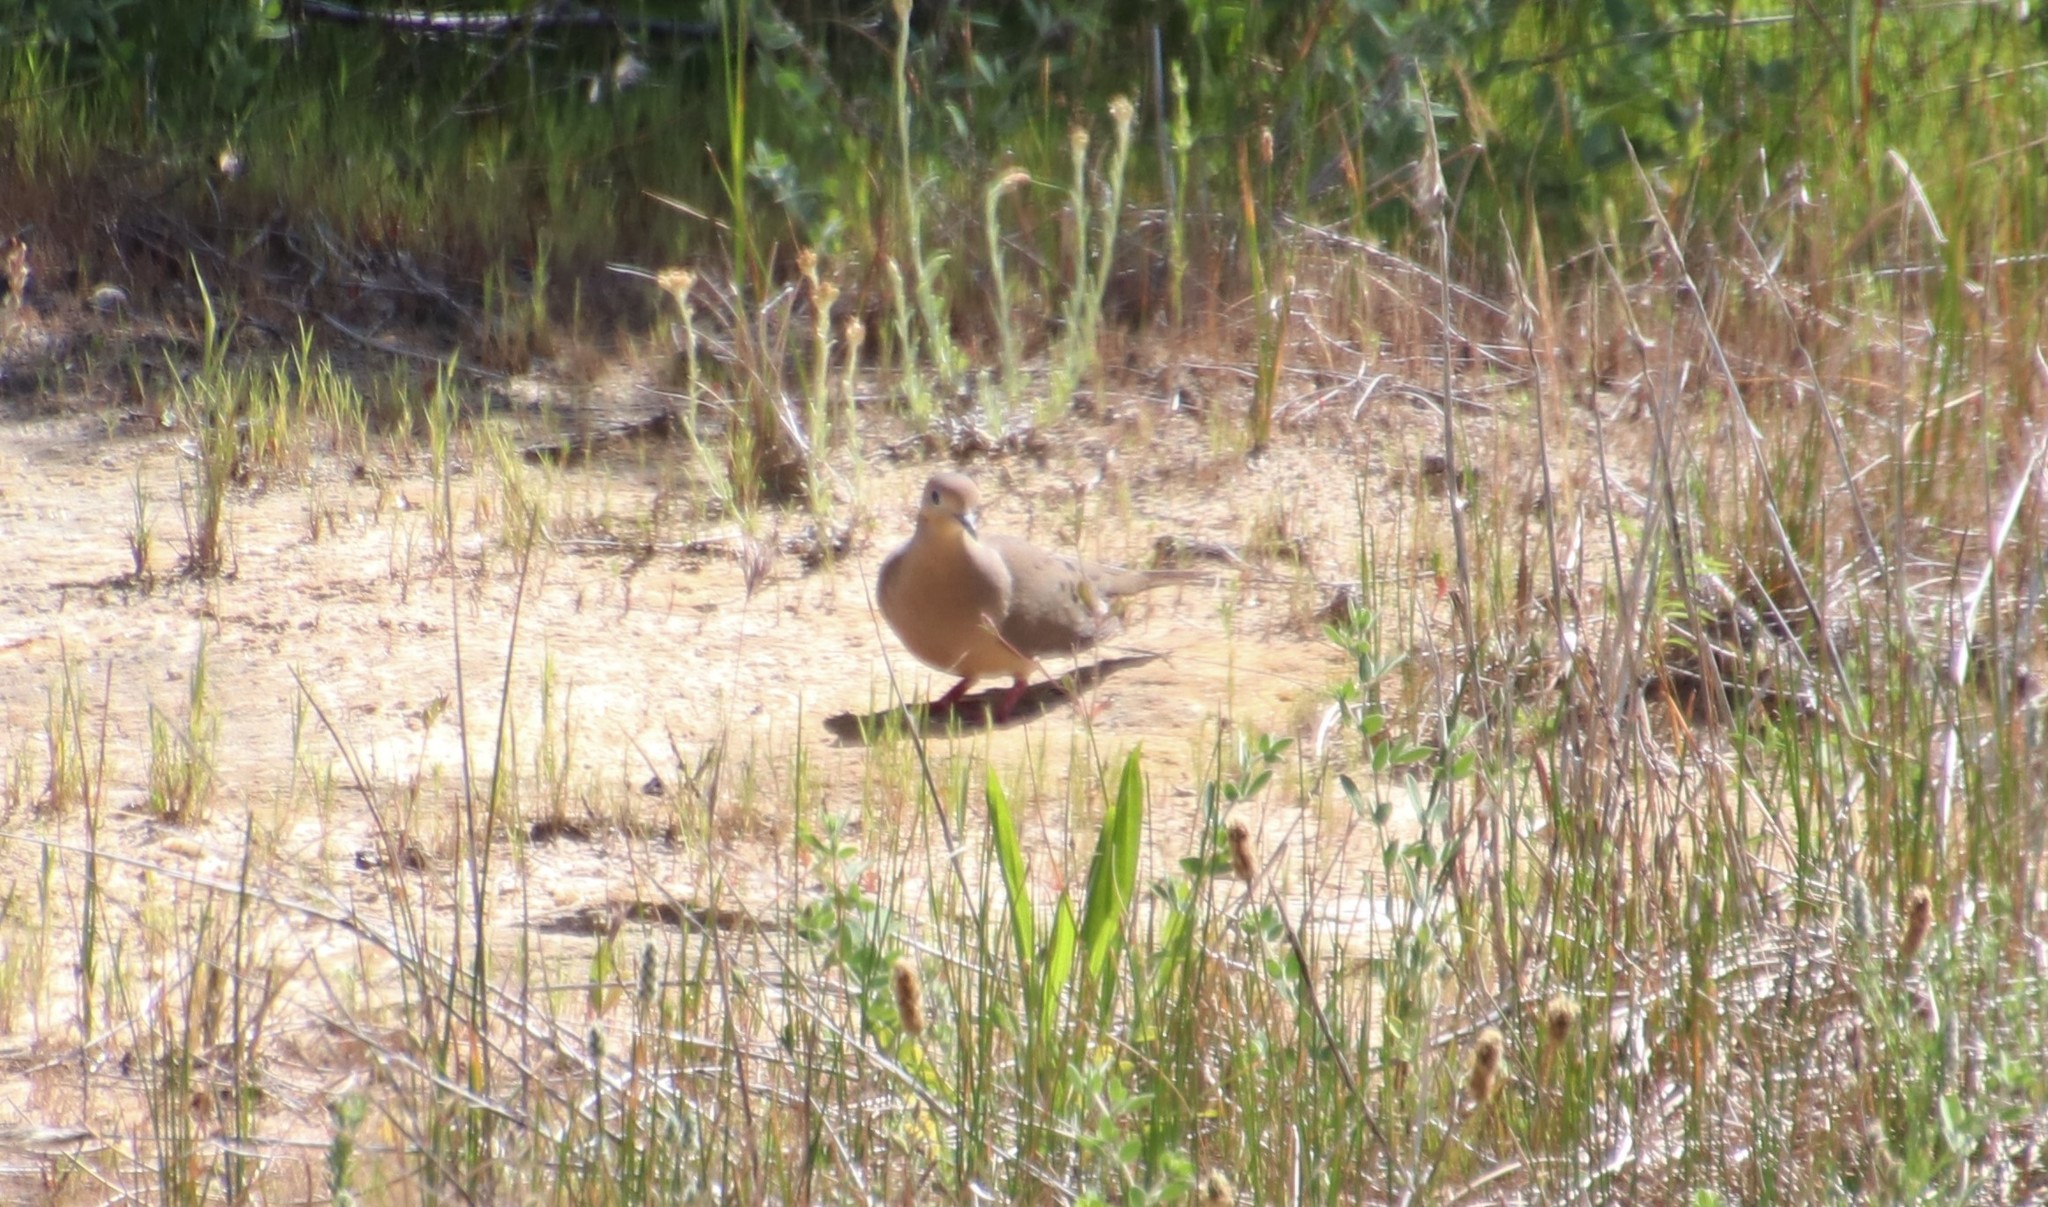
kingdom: Animalia
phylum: Chordata
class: Aves
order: Columbiformes
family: Columbidae
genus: Zenaida
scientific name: Zenaida macroura
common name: Mourning dove
